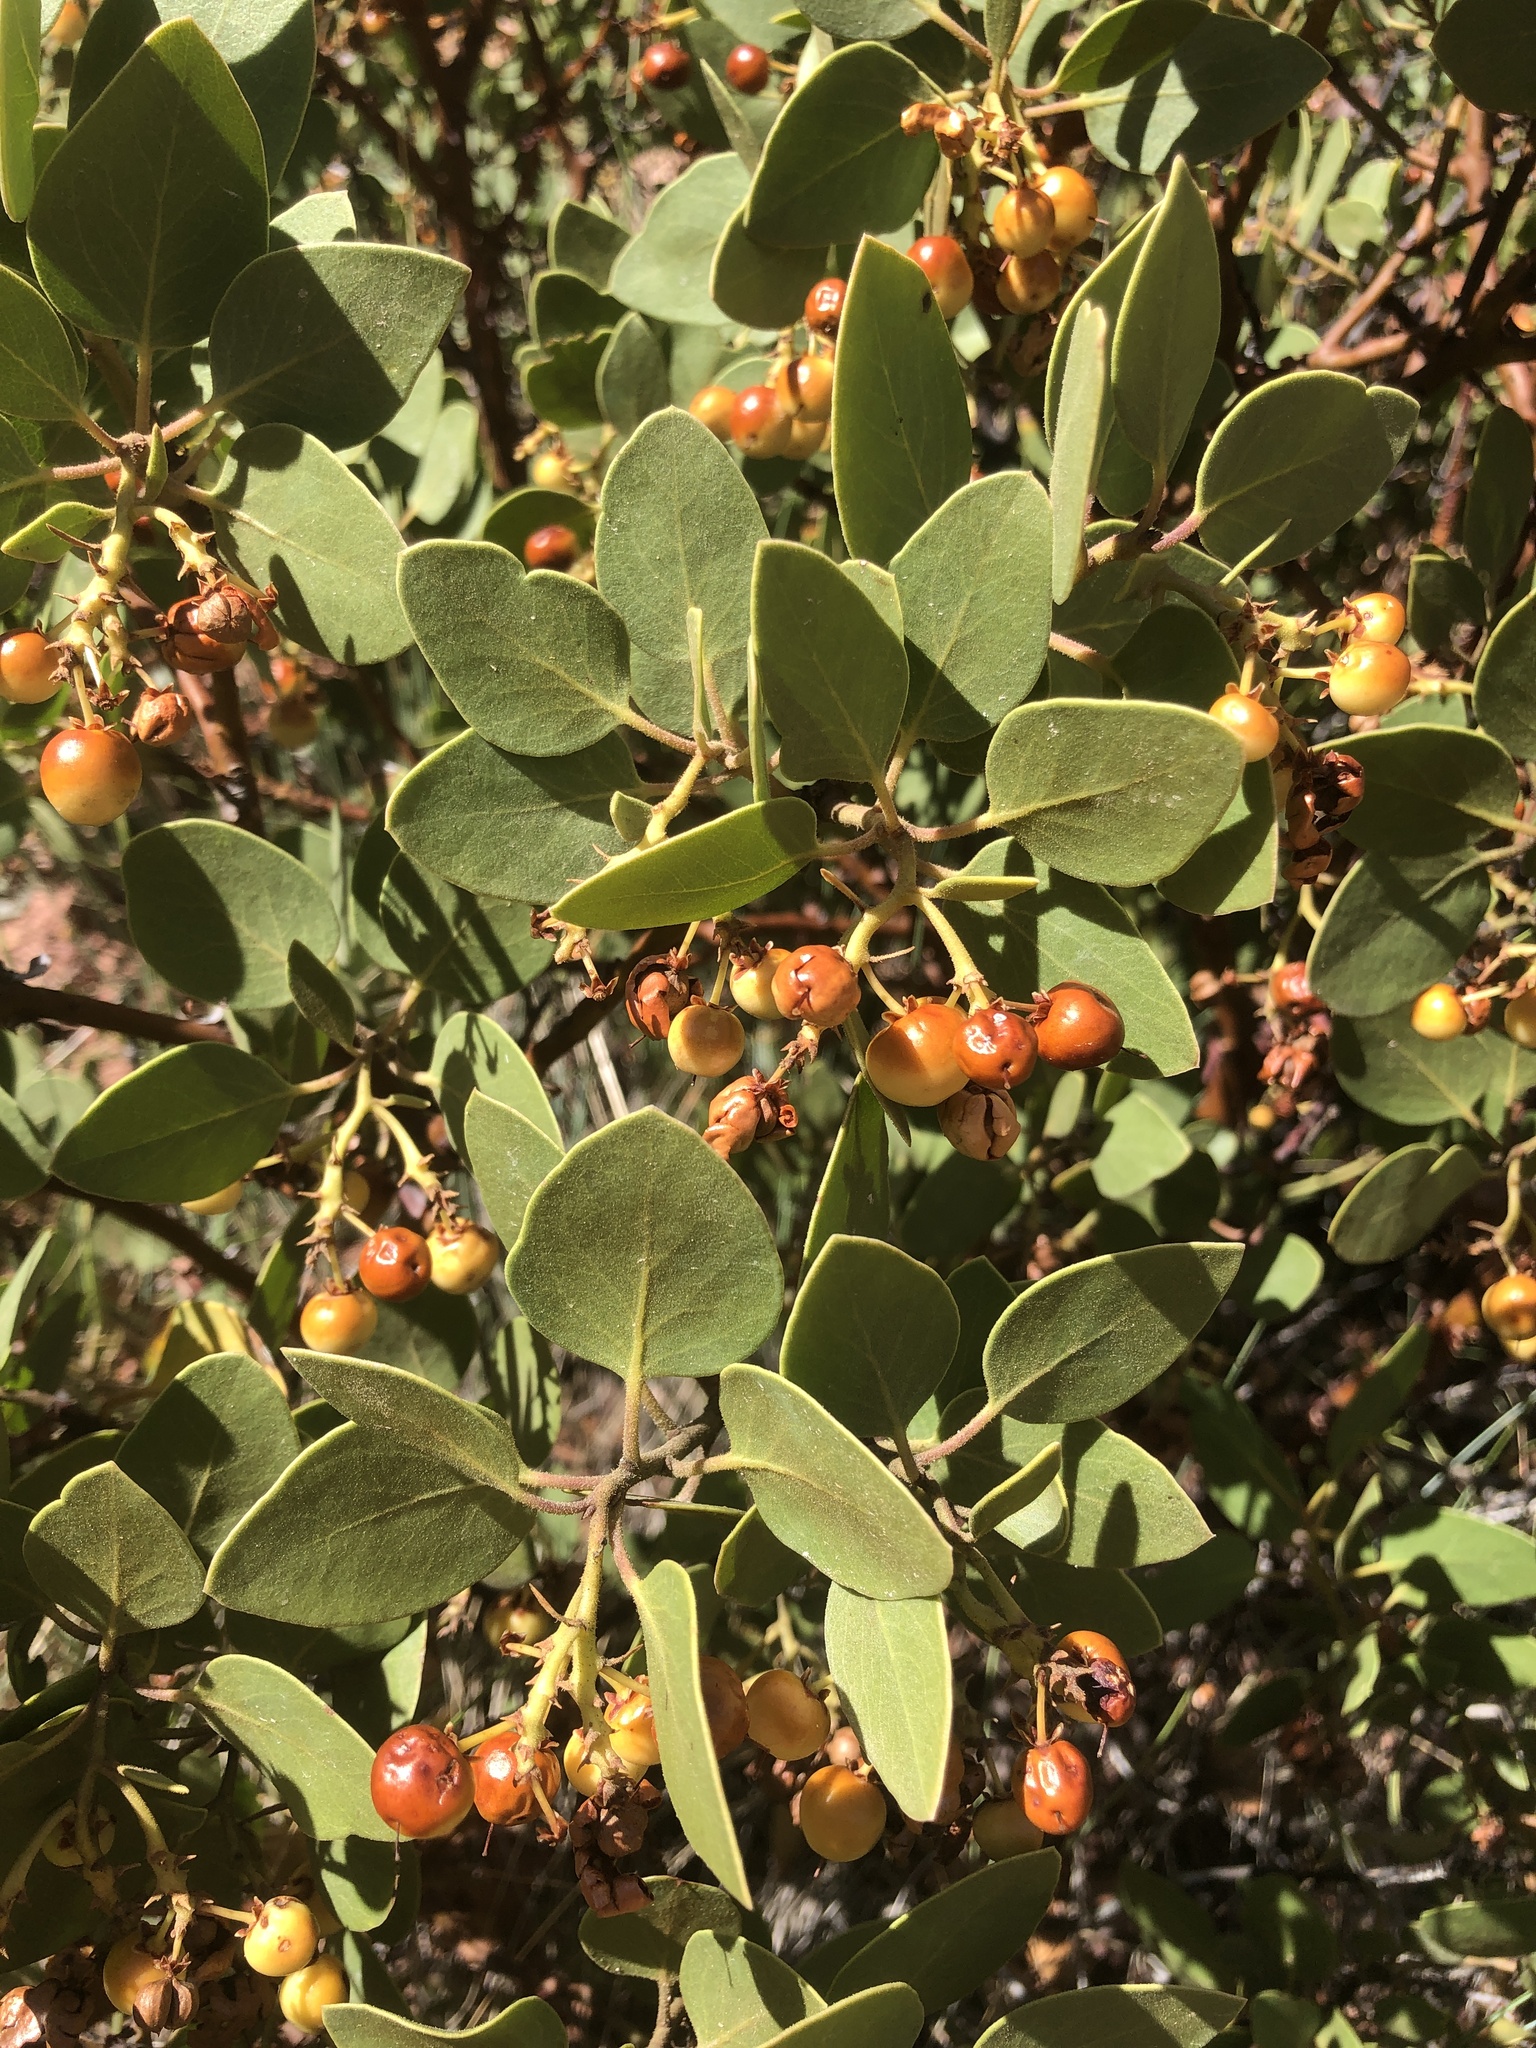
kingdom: Plantae
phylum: Tracheophyta
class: Magnoliopsida
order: Ericales
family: Ericaceae
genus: Arctostaphylos
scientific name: Arctostaphylos patula
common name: Green-leaf manzanita
